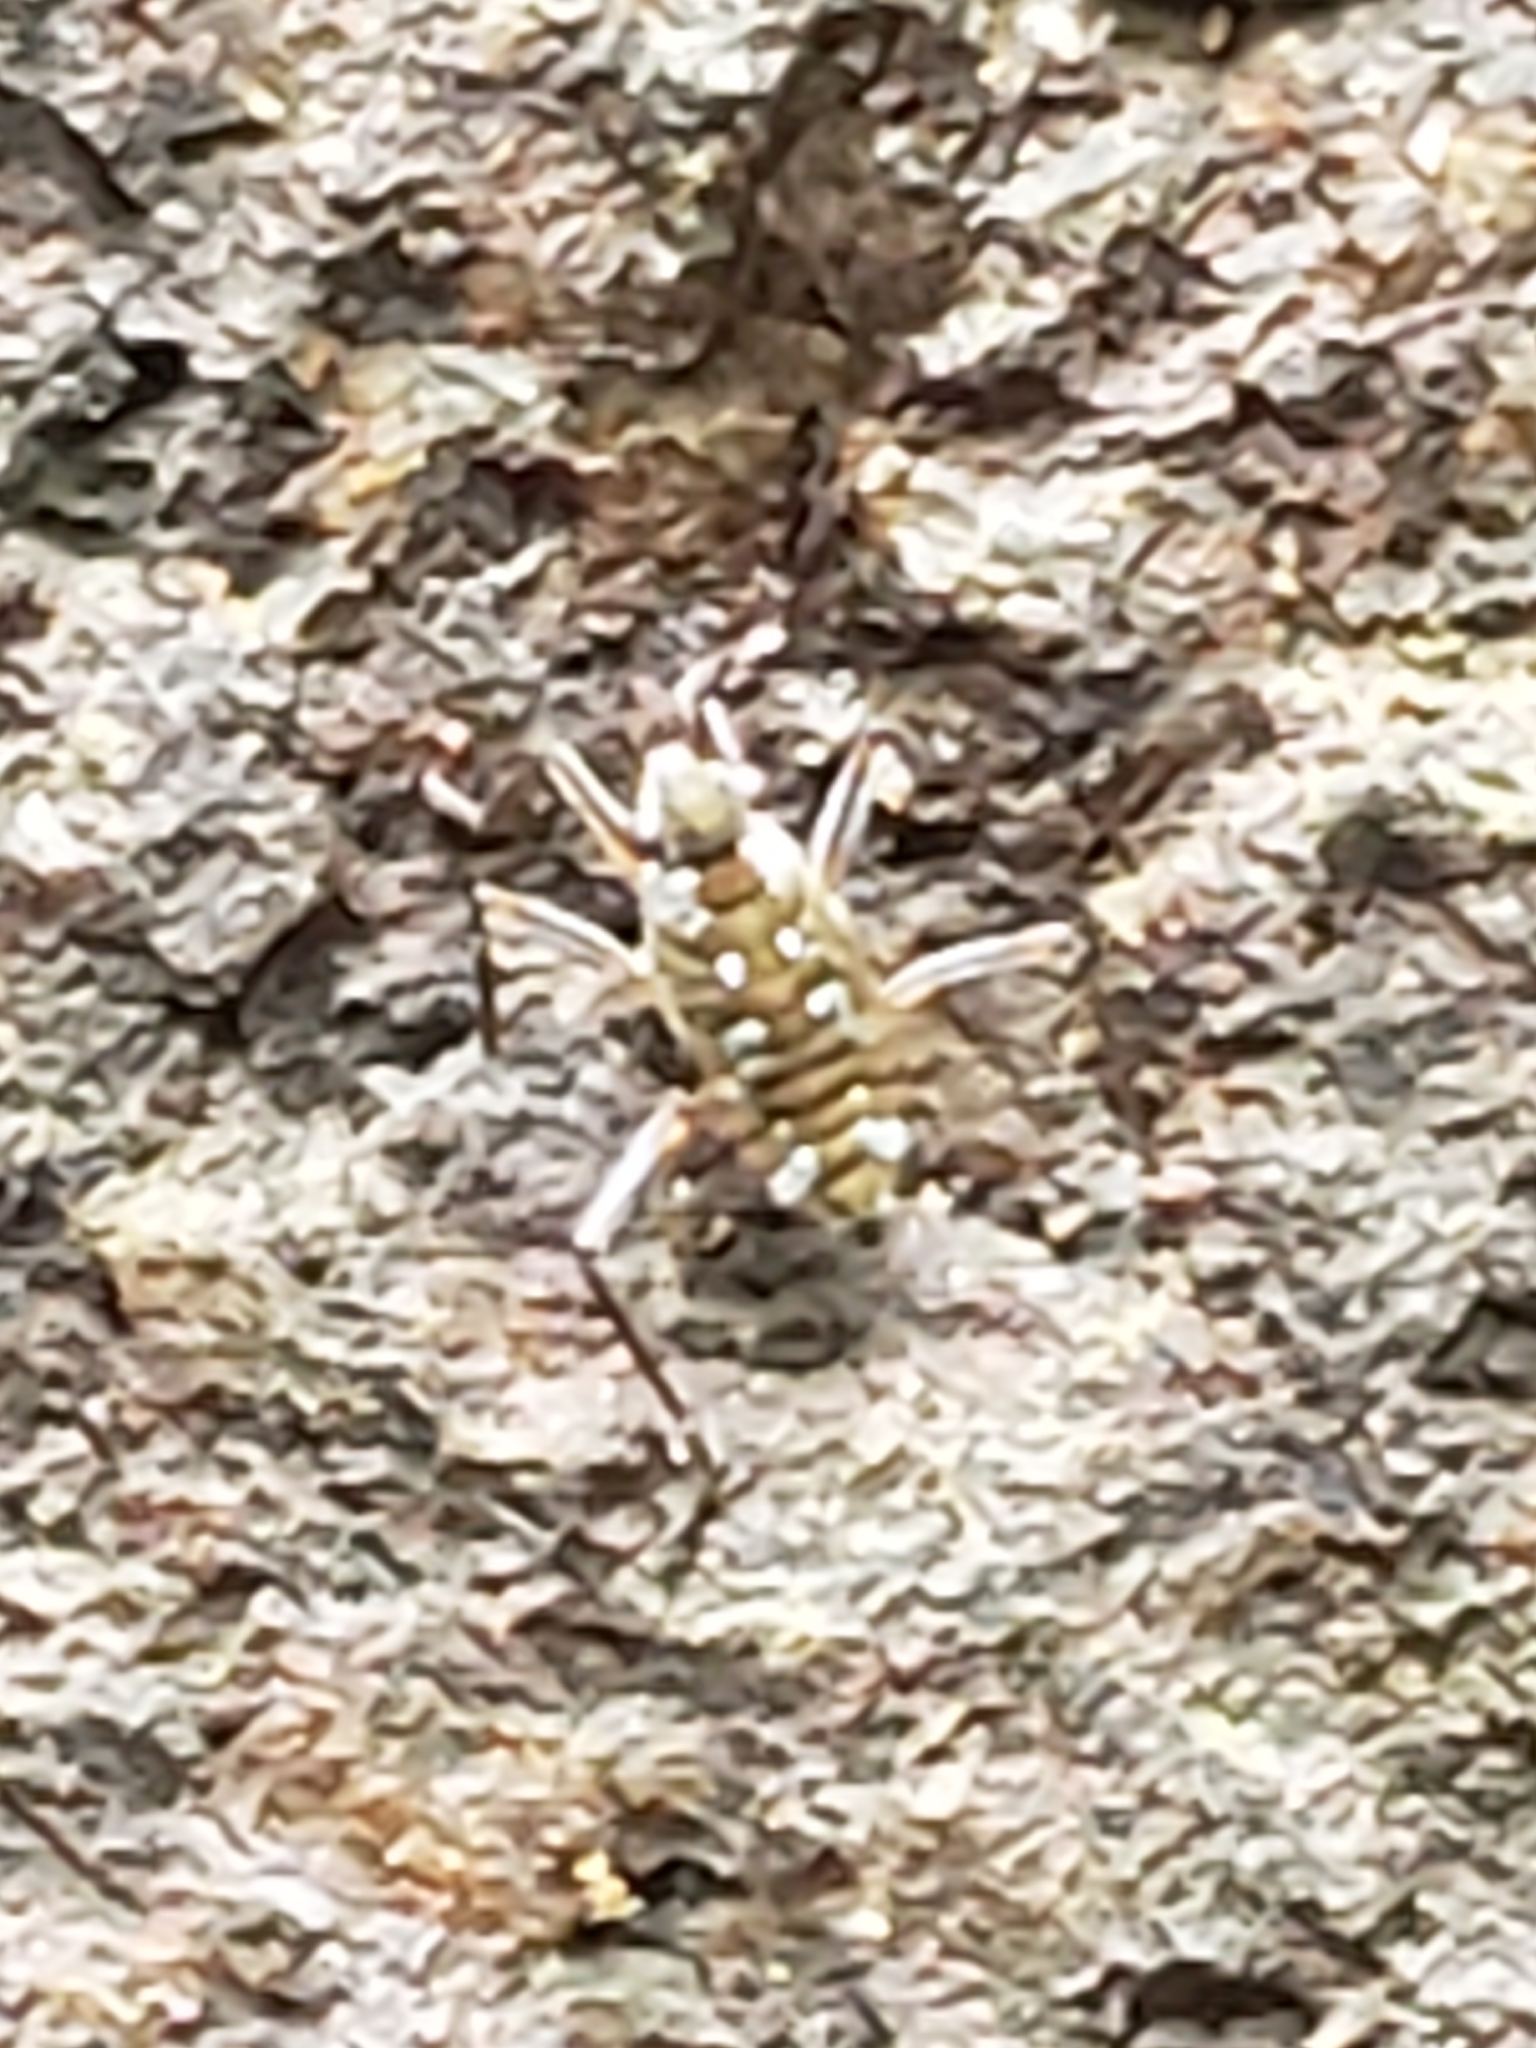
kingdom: Animalia
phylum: Arthropoda
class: Insecta
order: Hemiptera
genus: Kirkaldya
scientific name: Kirkaldya
